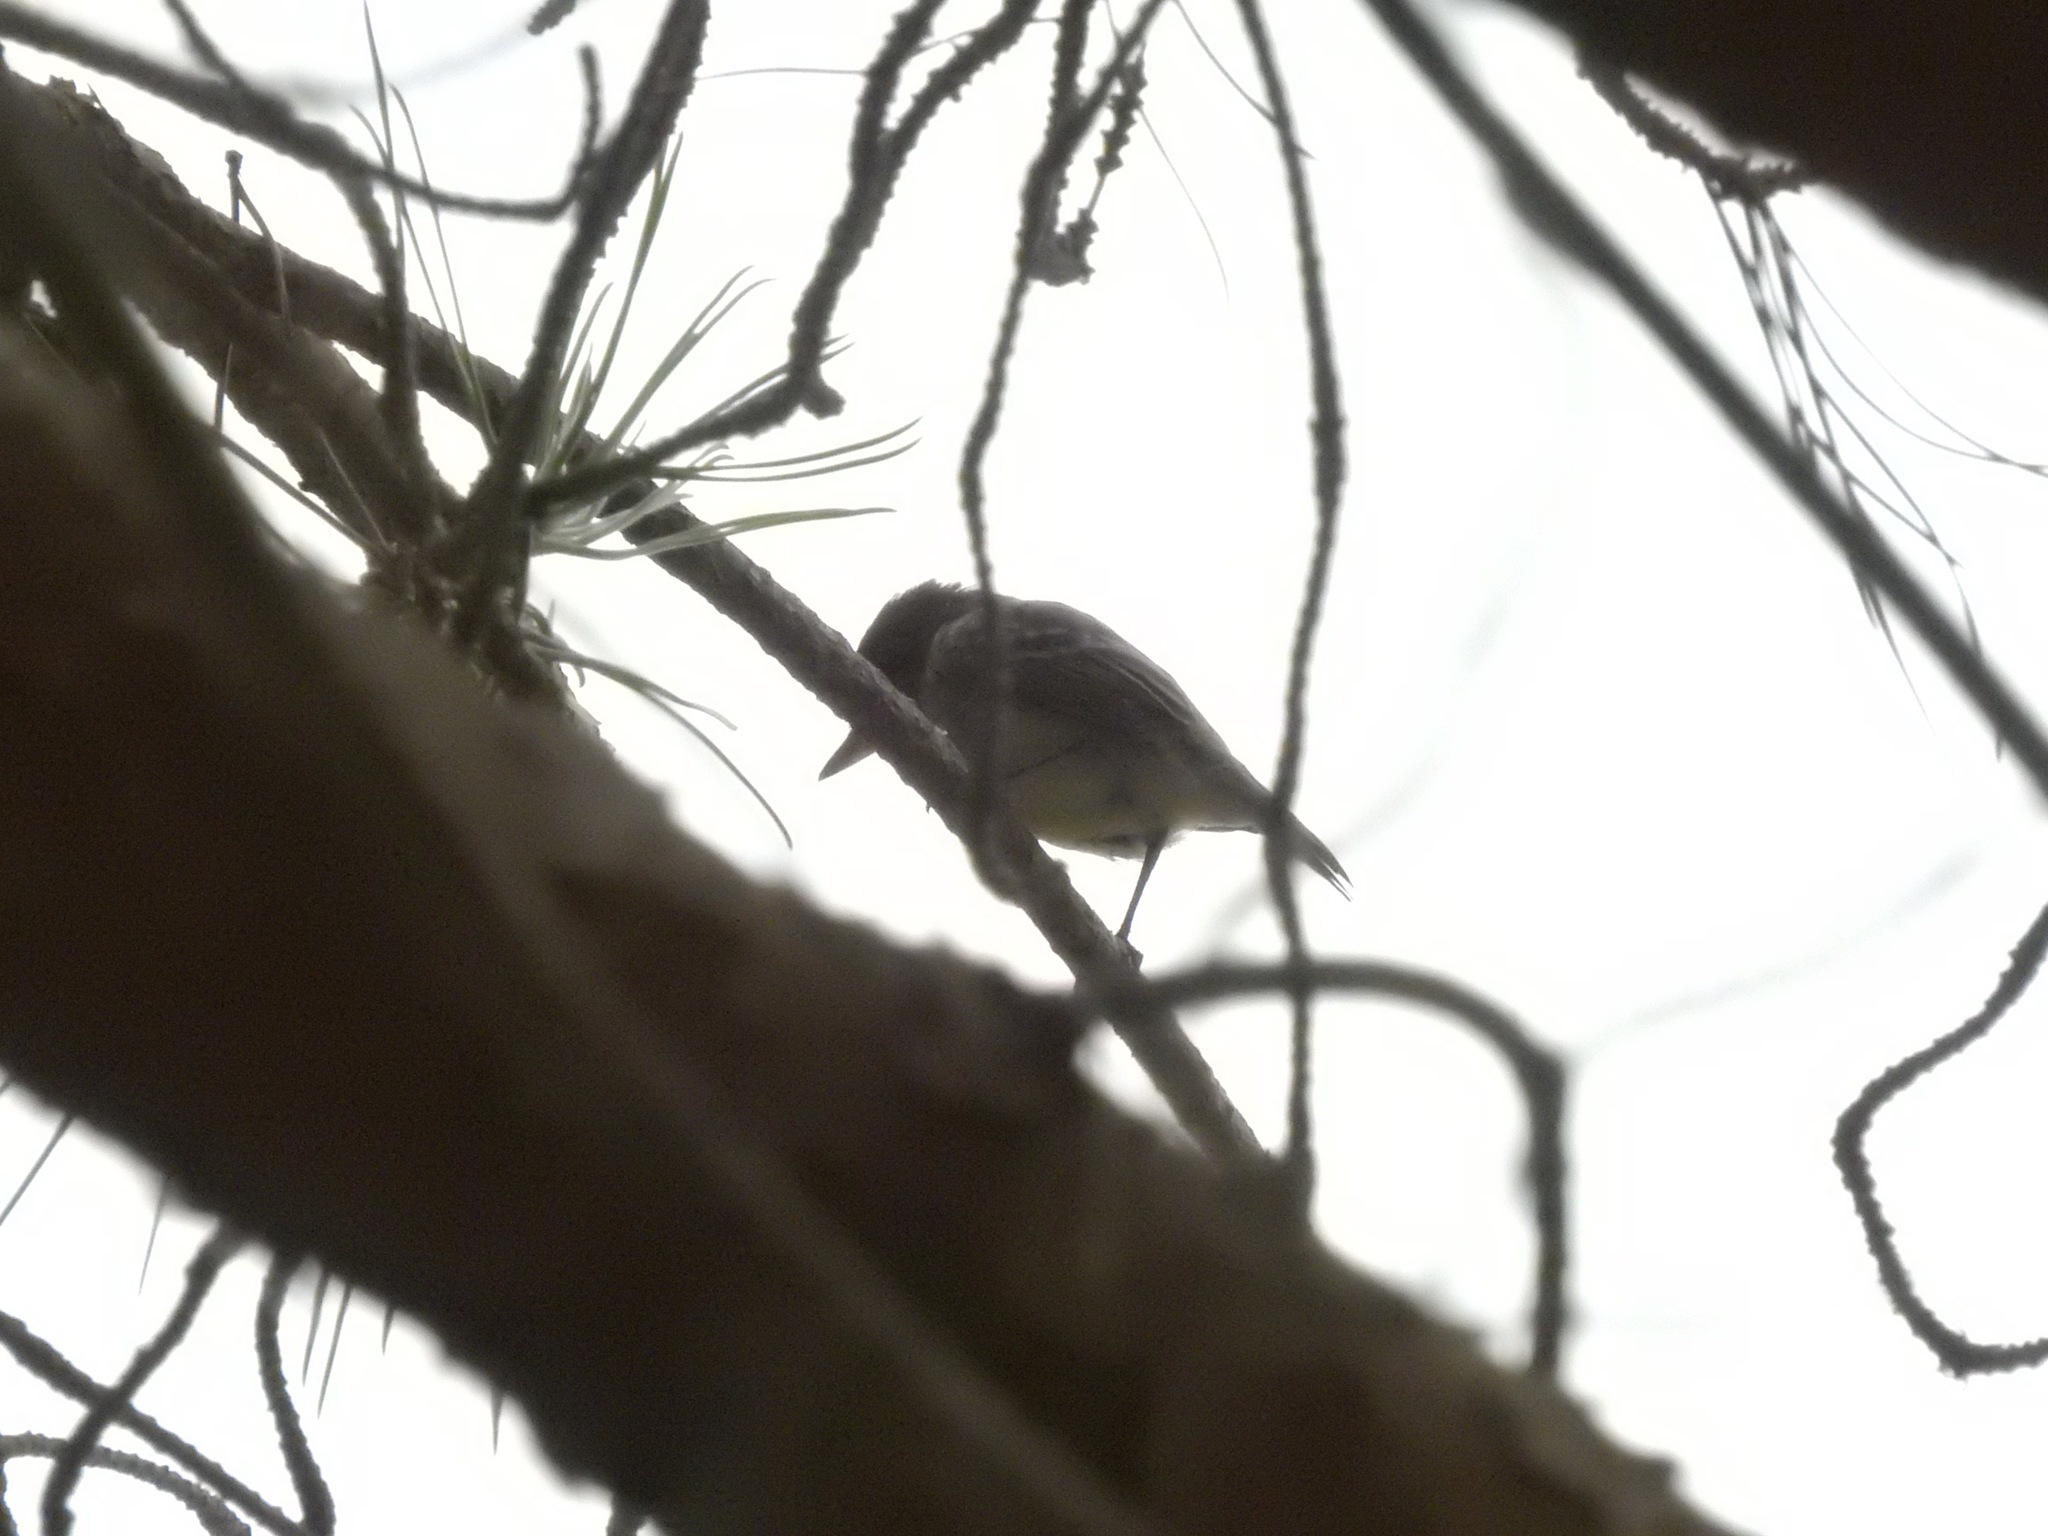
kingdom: Animalia
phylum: Chordata
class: Aves
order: Passeriformes
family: Tyrannidae
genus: Empidonax
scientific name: Empidonax traillii
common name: Willow flycatcher
